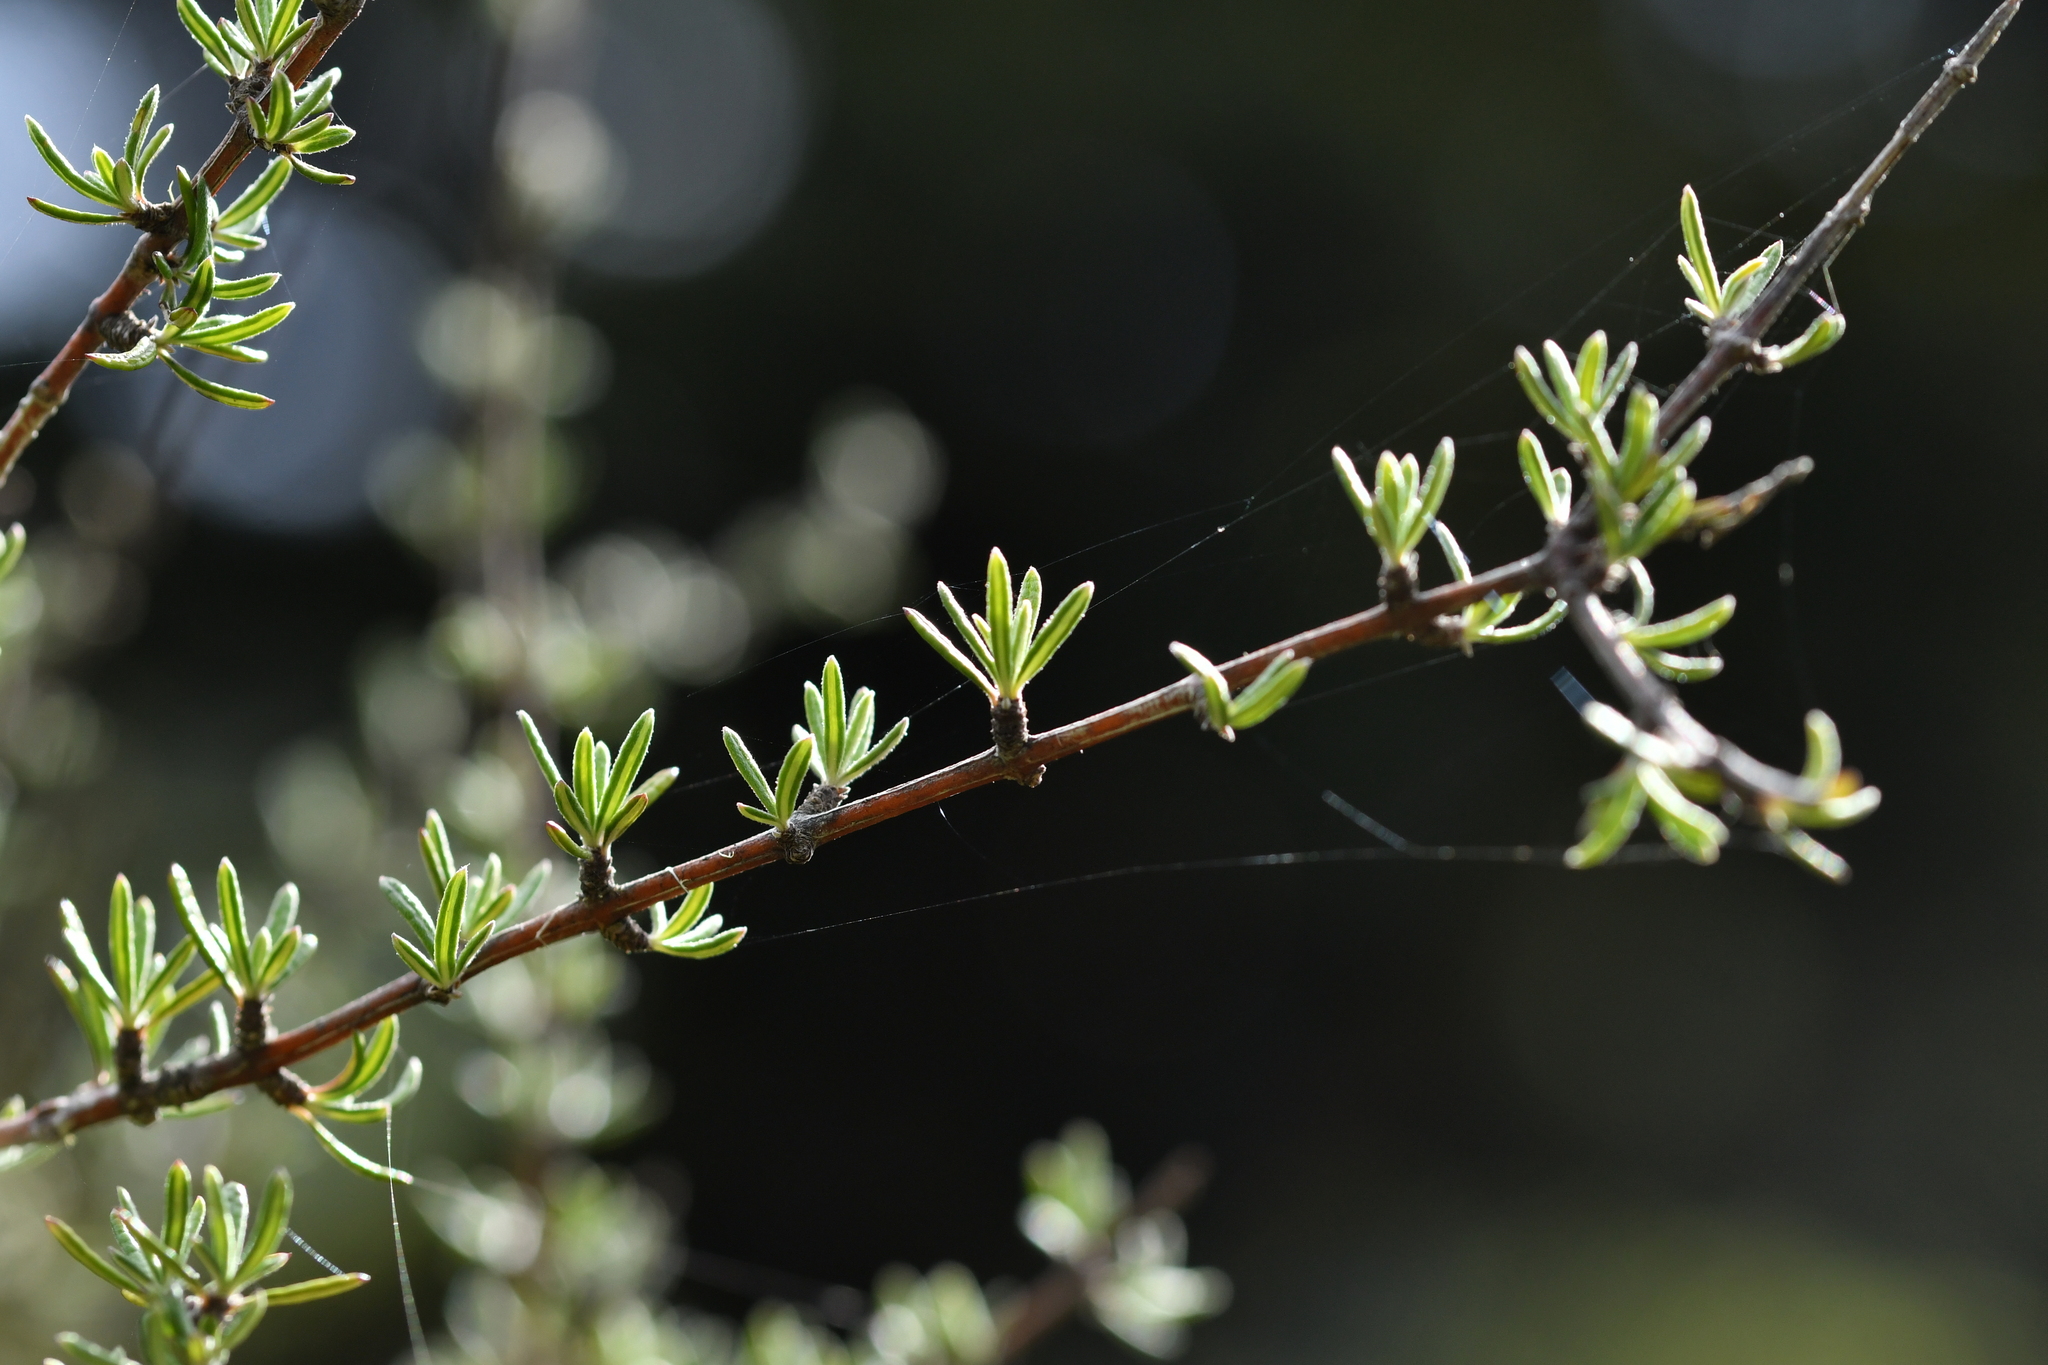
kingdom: Plantae
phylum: Tracheophyta
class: Magnoliopsida
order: Asterales
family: Asteraceae
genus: Olearia
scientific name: Olearia bullata
